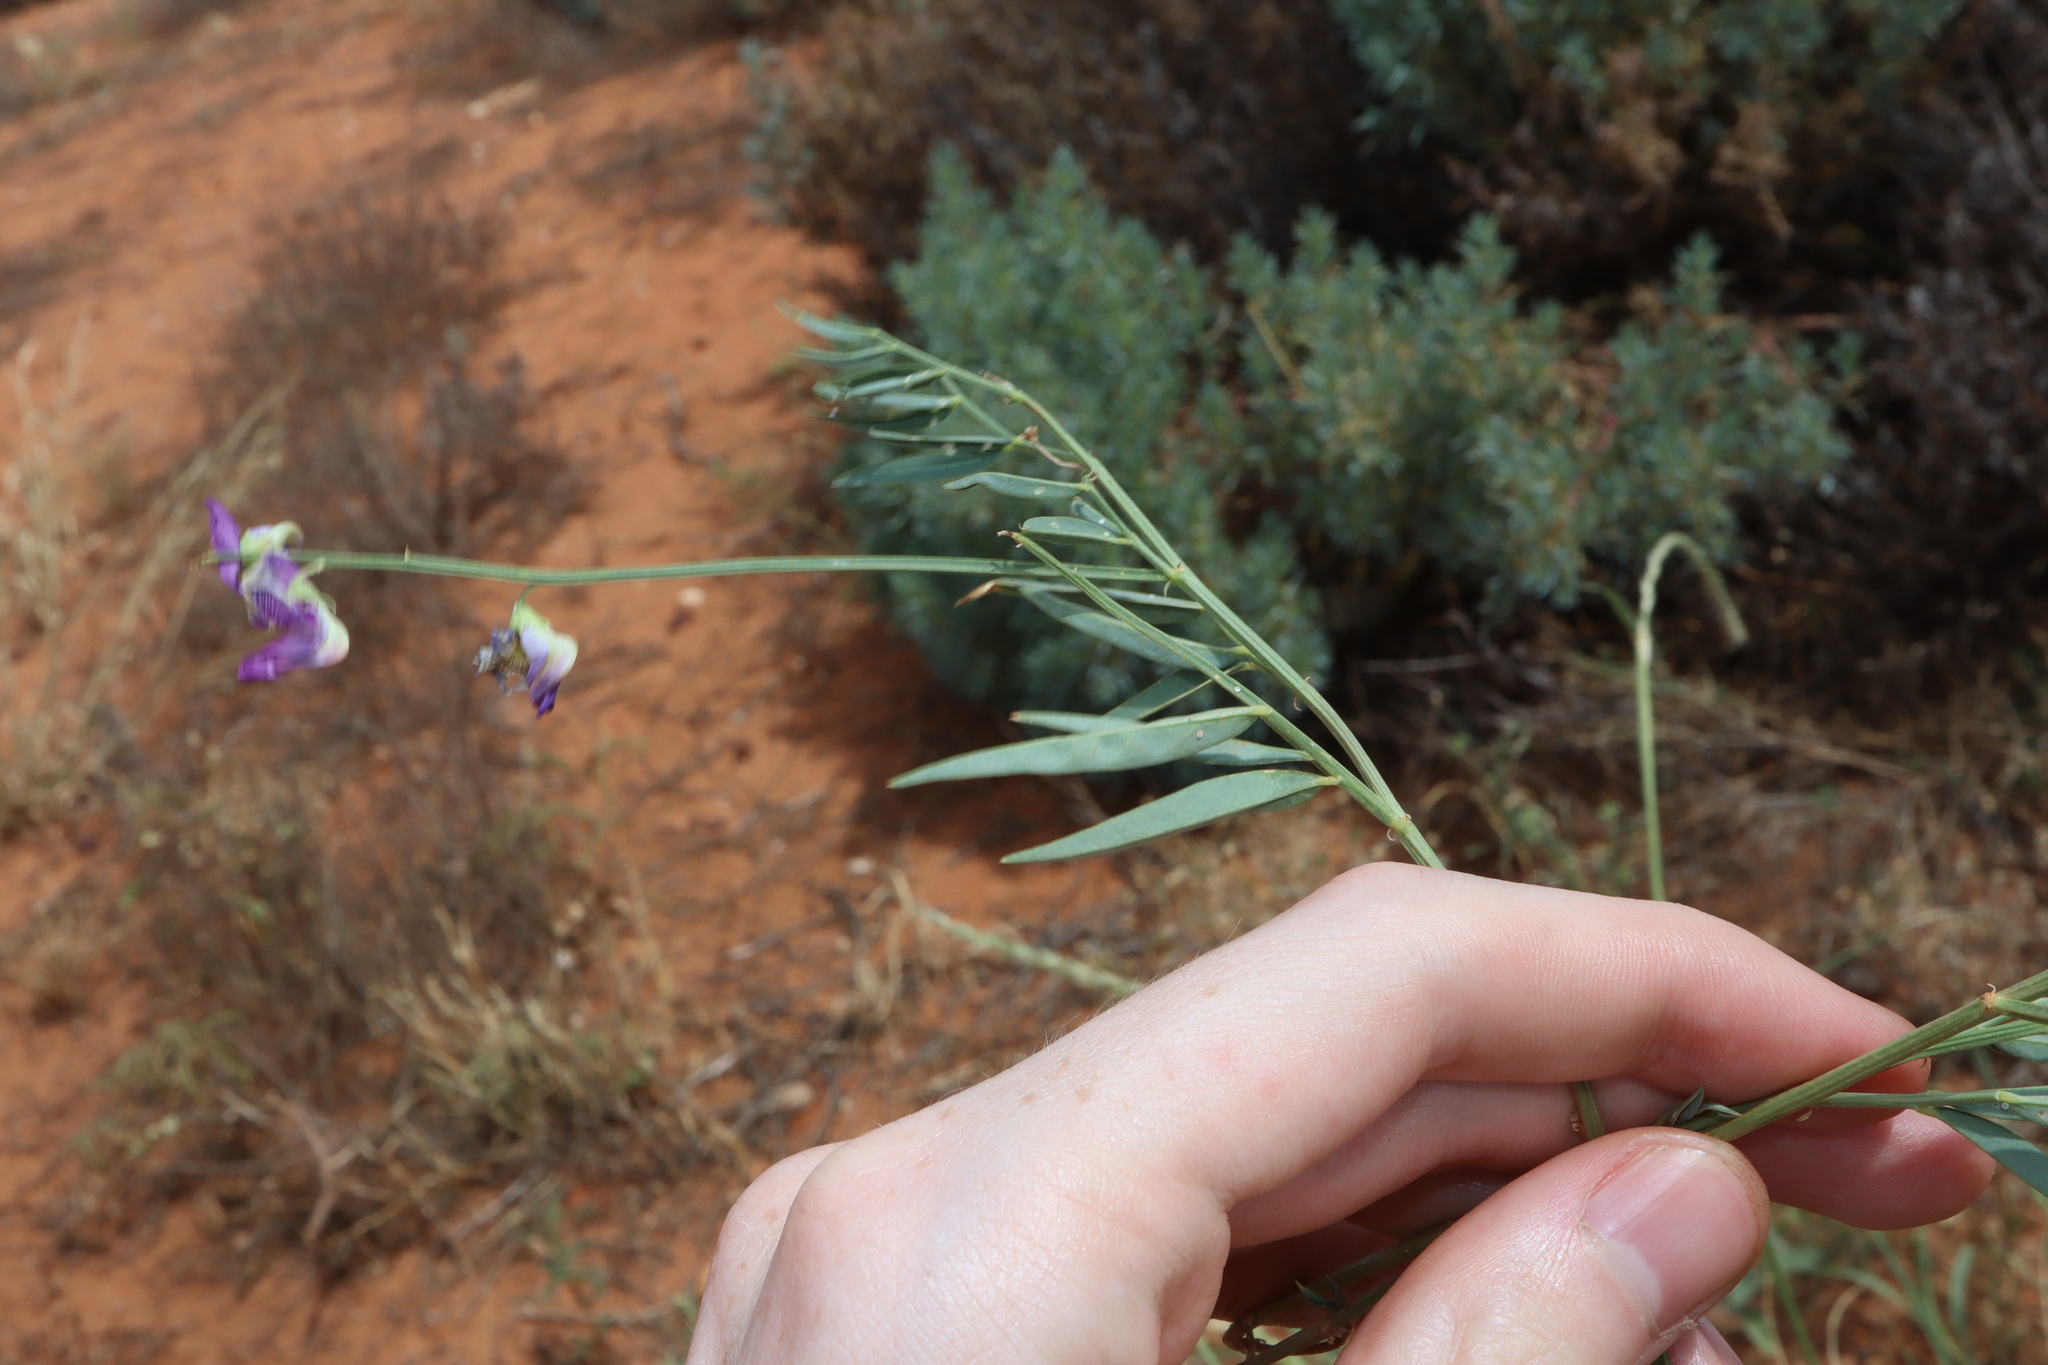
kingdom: Plantae
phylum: Tracheophyta
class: Magnoliopsida
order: Fabales
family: Fabaceae
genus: Swainsona
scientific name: Swainsona campylantha
